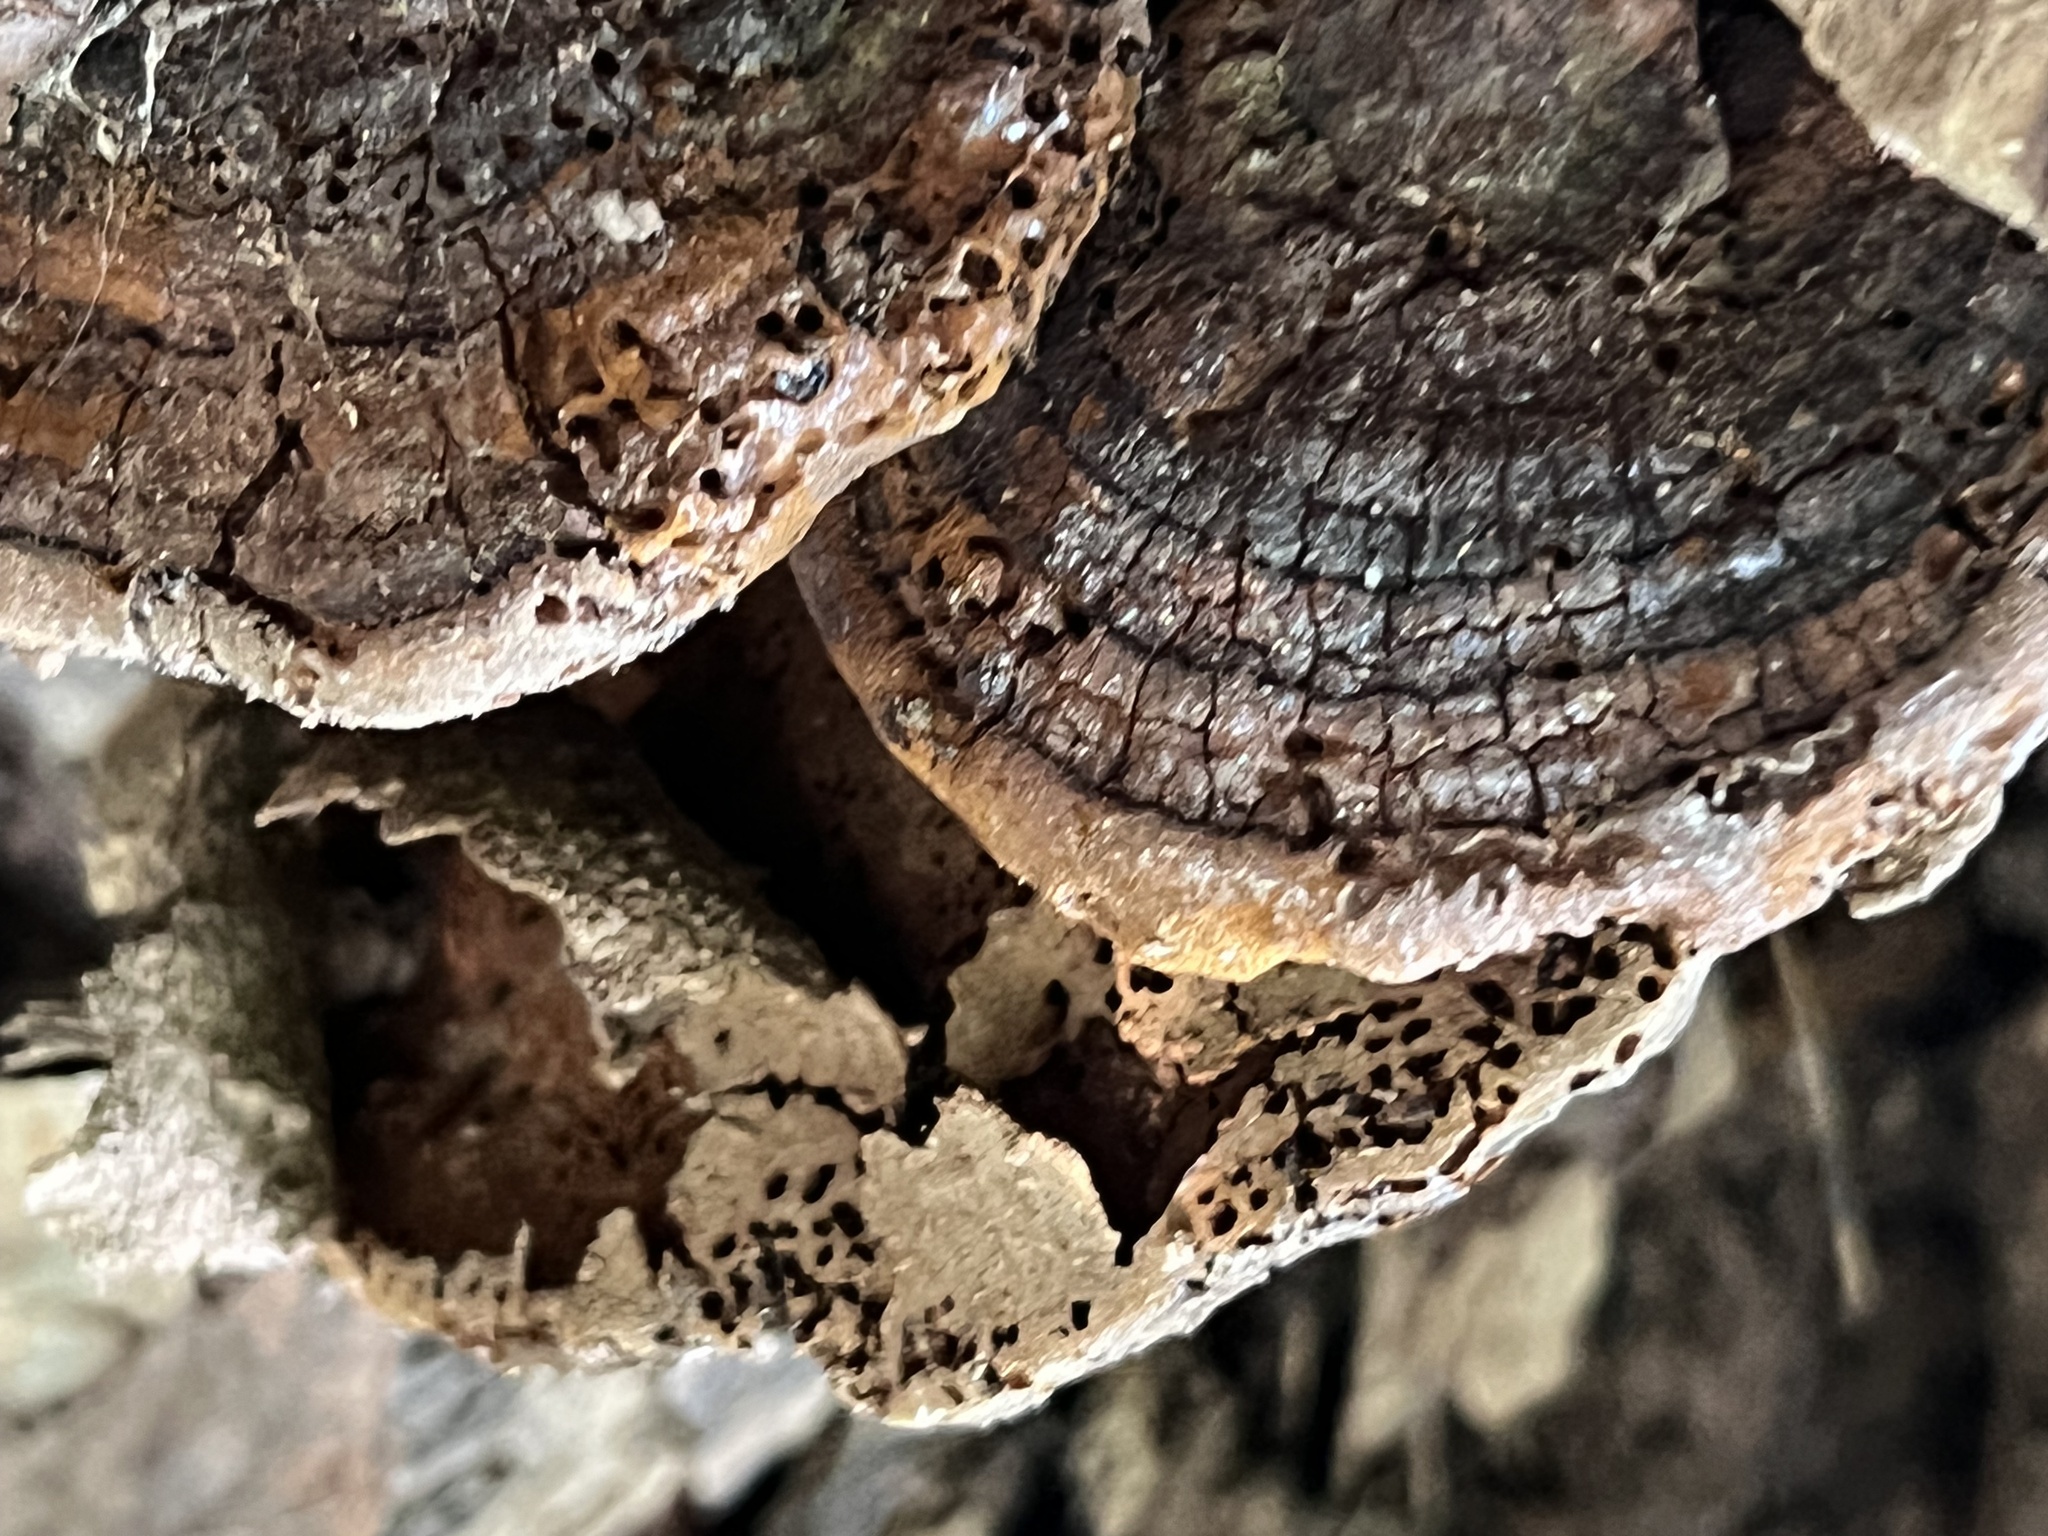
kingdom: Fungi
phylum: Basidiomycota
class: Agaricomycetes
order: Hymenochaetales
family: Hymenochaetaceae
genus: Phellinus
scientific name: Phellinus robiniae
